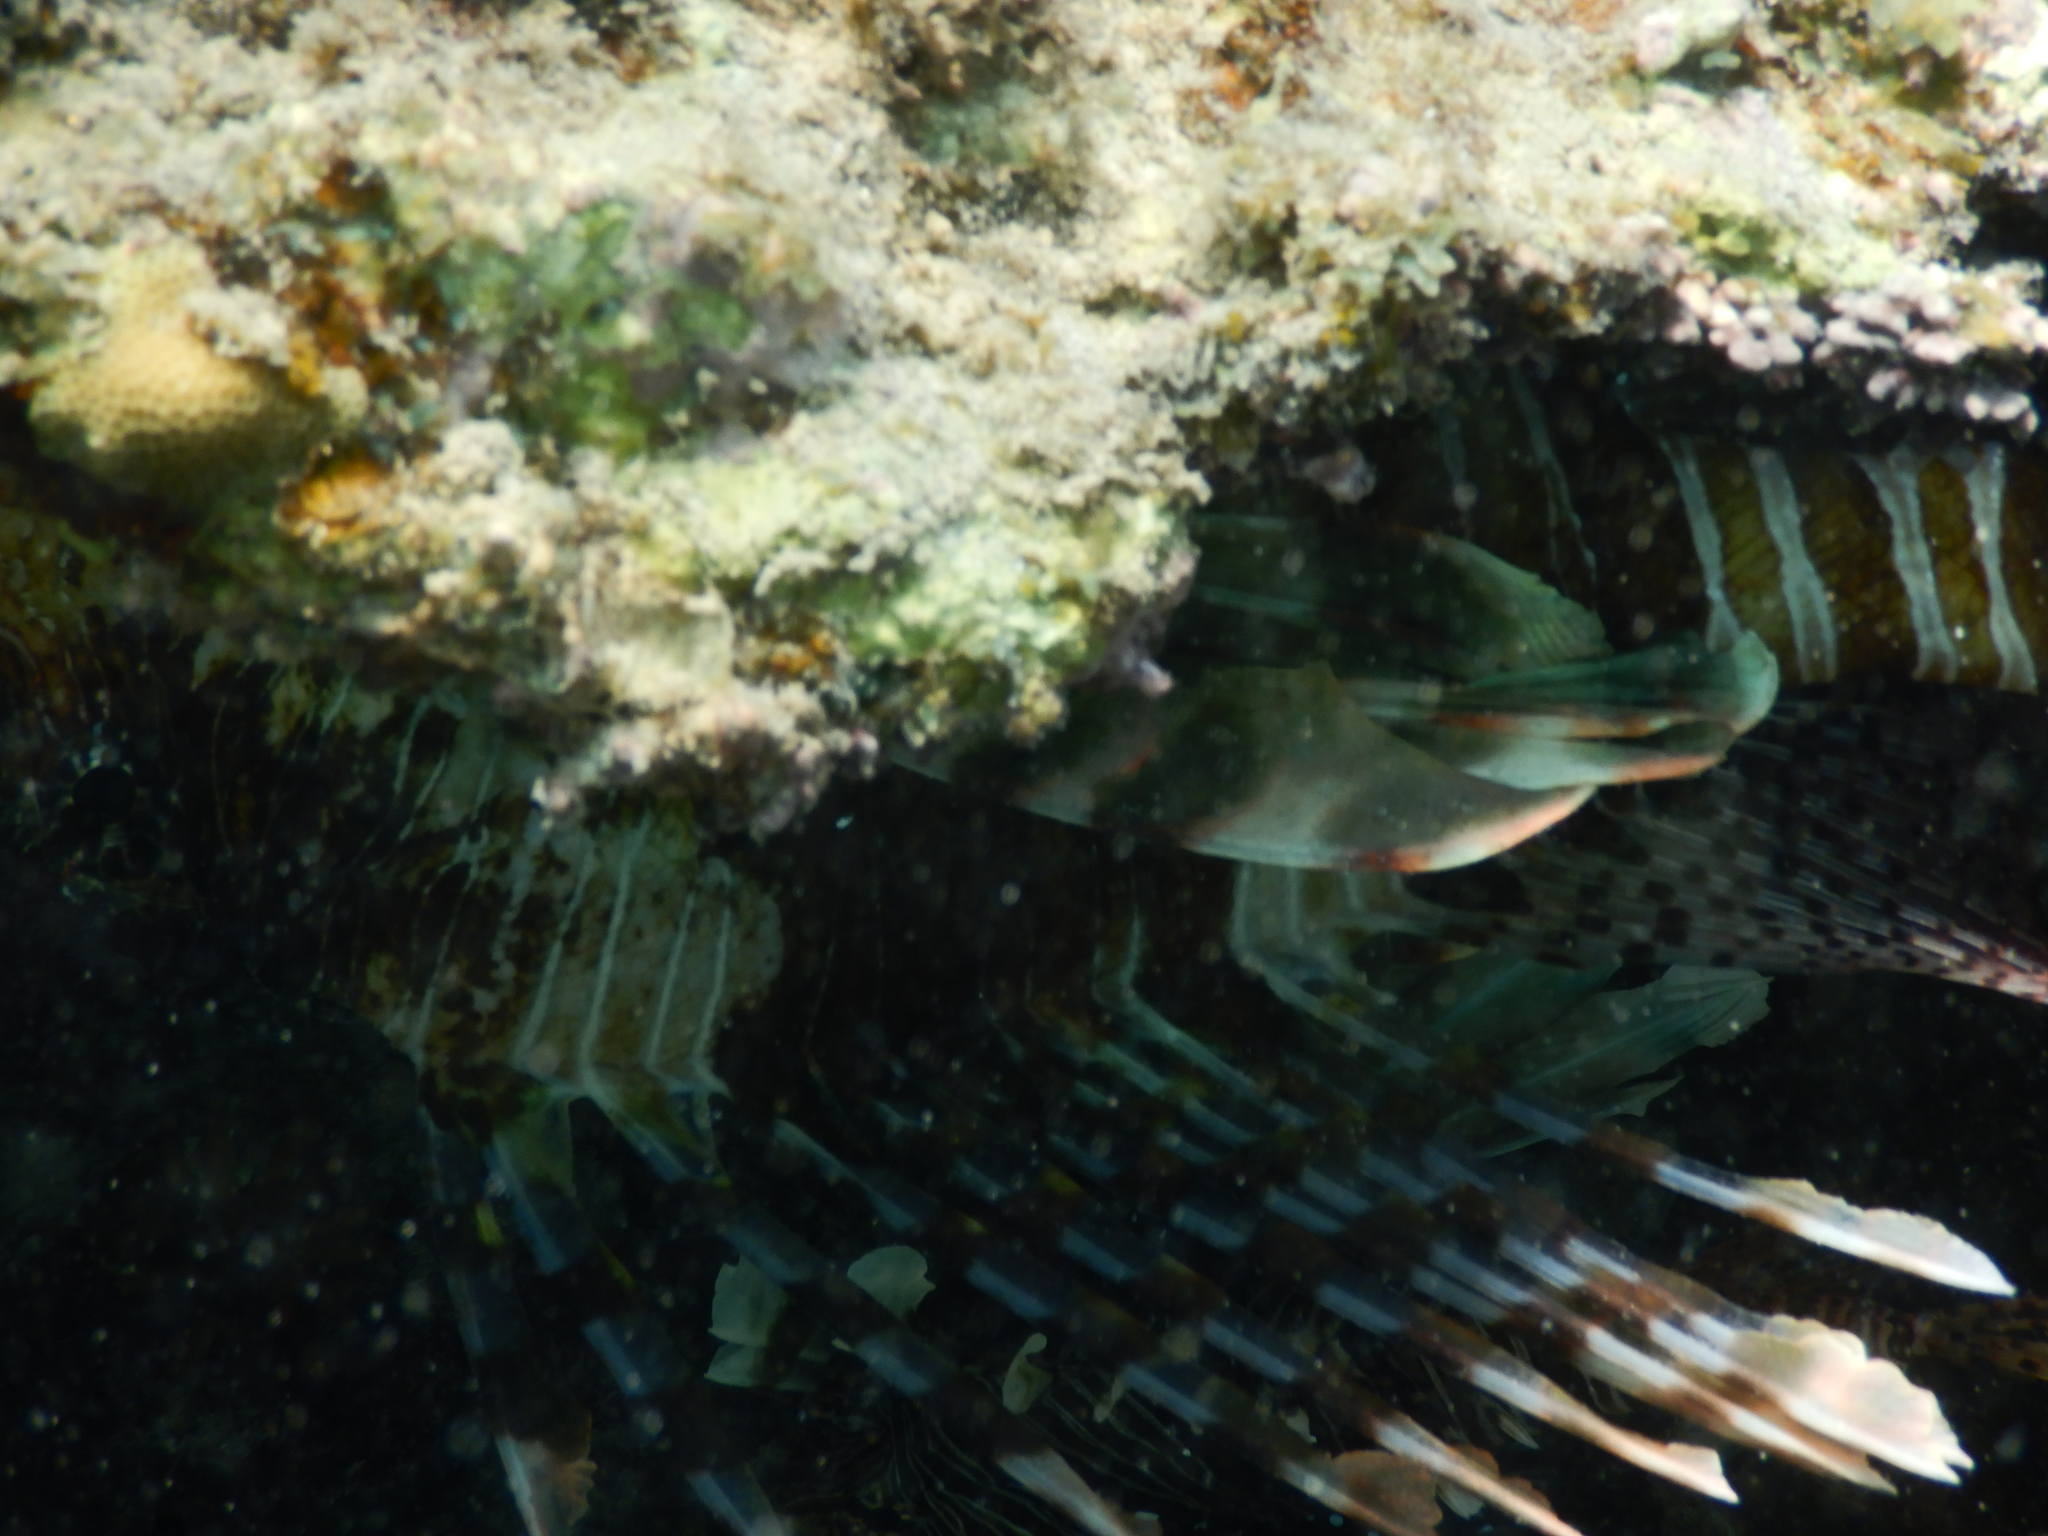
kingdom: Animalia
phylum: Chordata
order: Scorpaeniformes
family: Scorpaenidae
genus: Pterois
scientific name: Pterois miles
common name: Devil firefish
